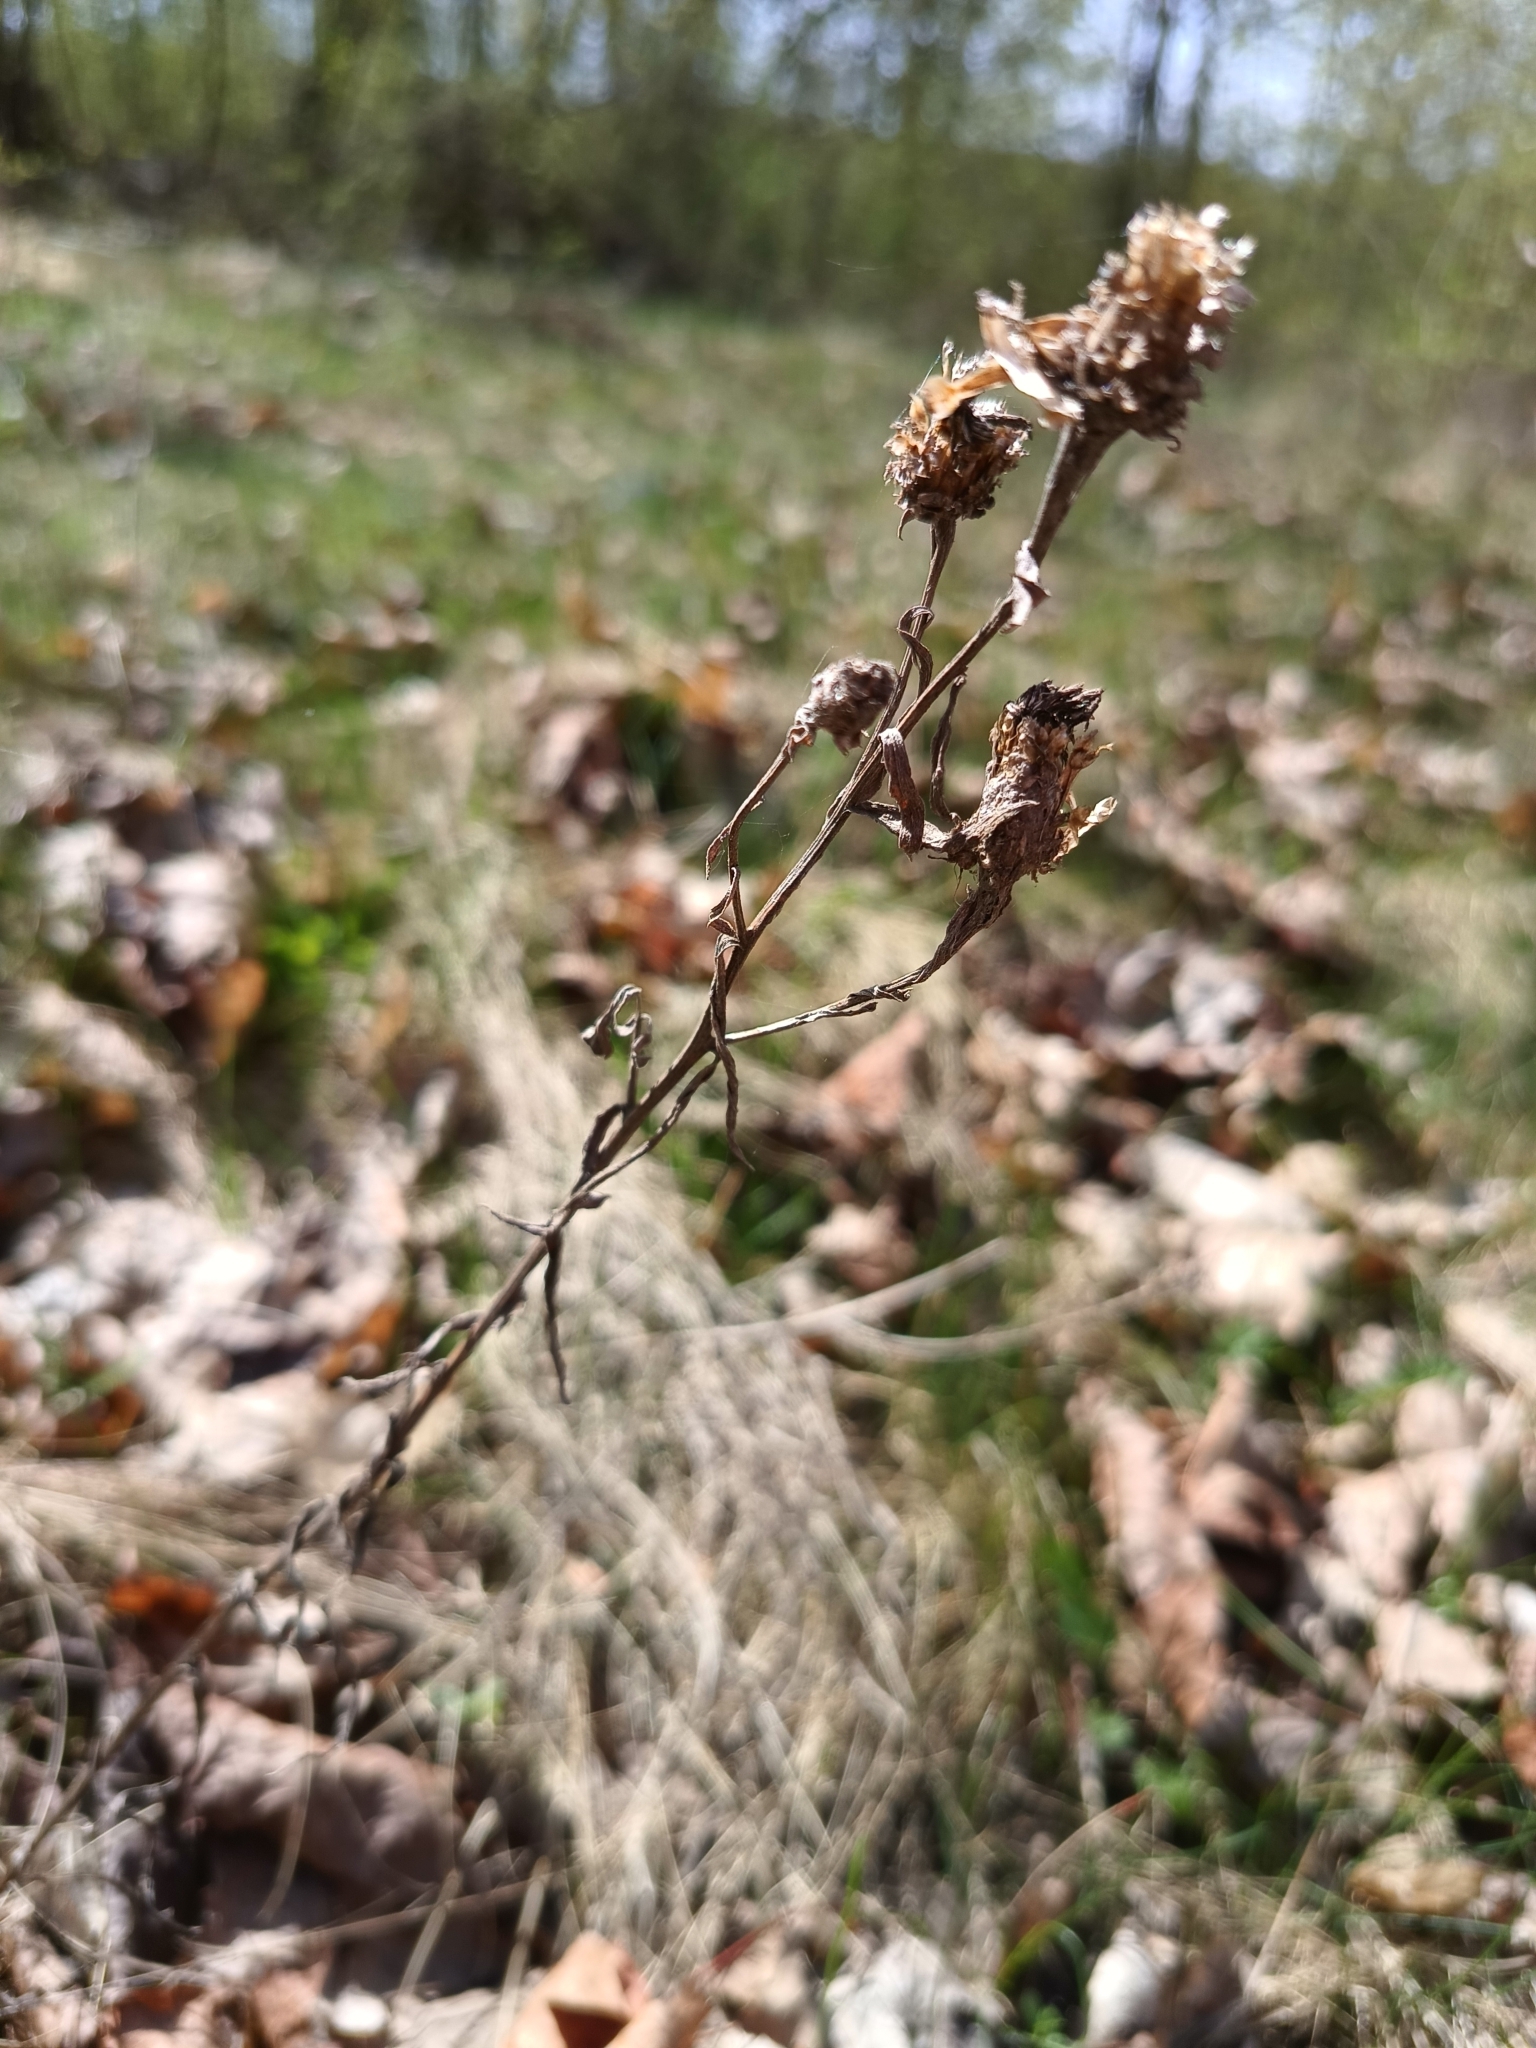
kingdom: Plantae
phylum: Tracheophyta
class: Magnoliopsida
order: Asterales
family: Asteraceae
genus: Centaurea
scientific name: Centaurea jacea
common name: Brown knapweed
